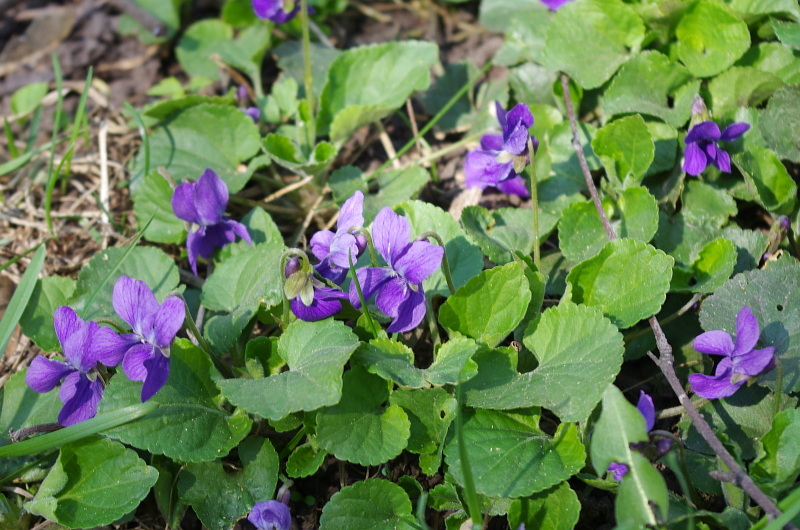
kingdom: Plantae
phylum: Tracheophyta
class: Magnoliopsida
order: Malpighiales
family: Violaceae
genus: Viola
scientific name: Viola odorata
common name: Sweet violet
